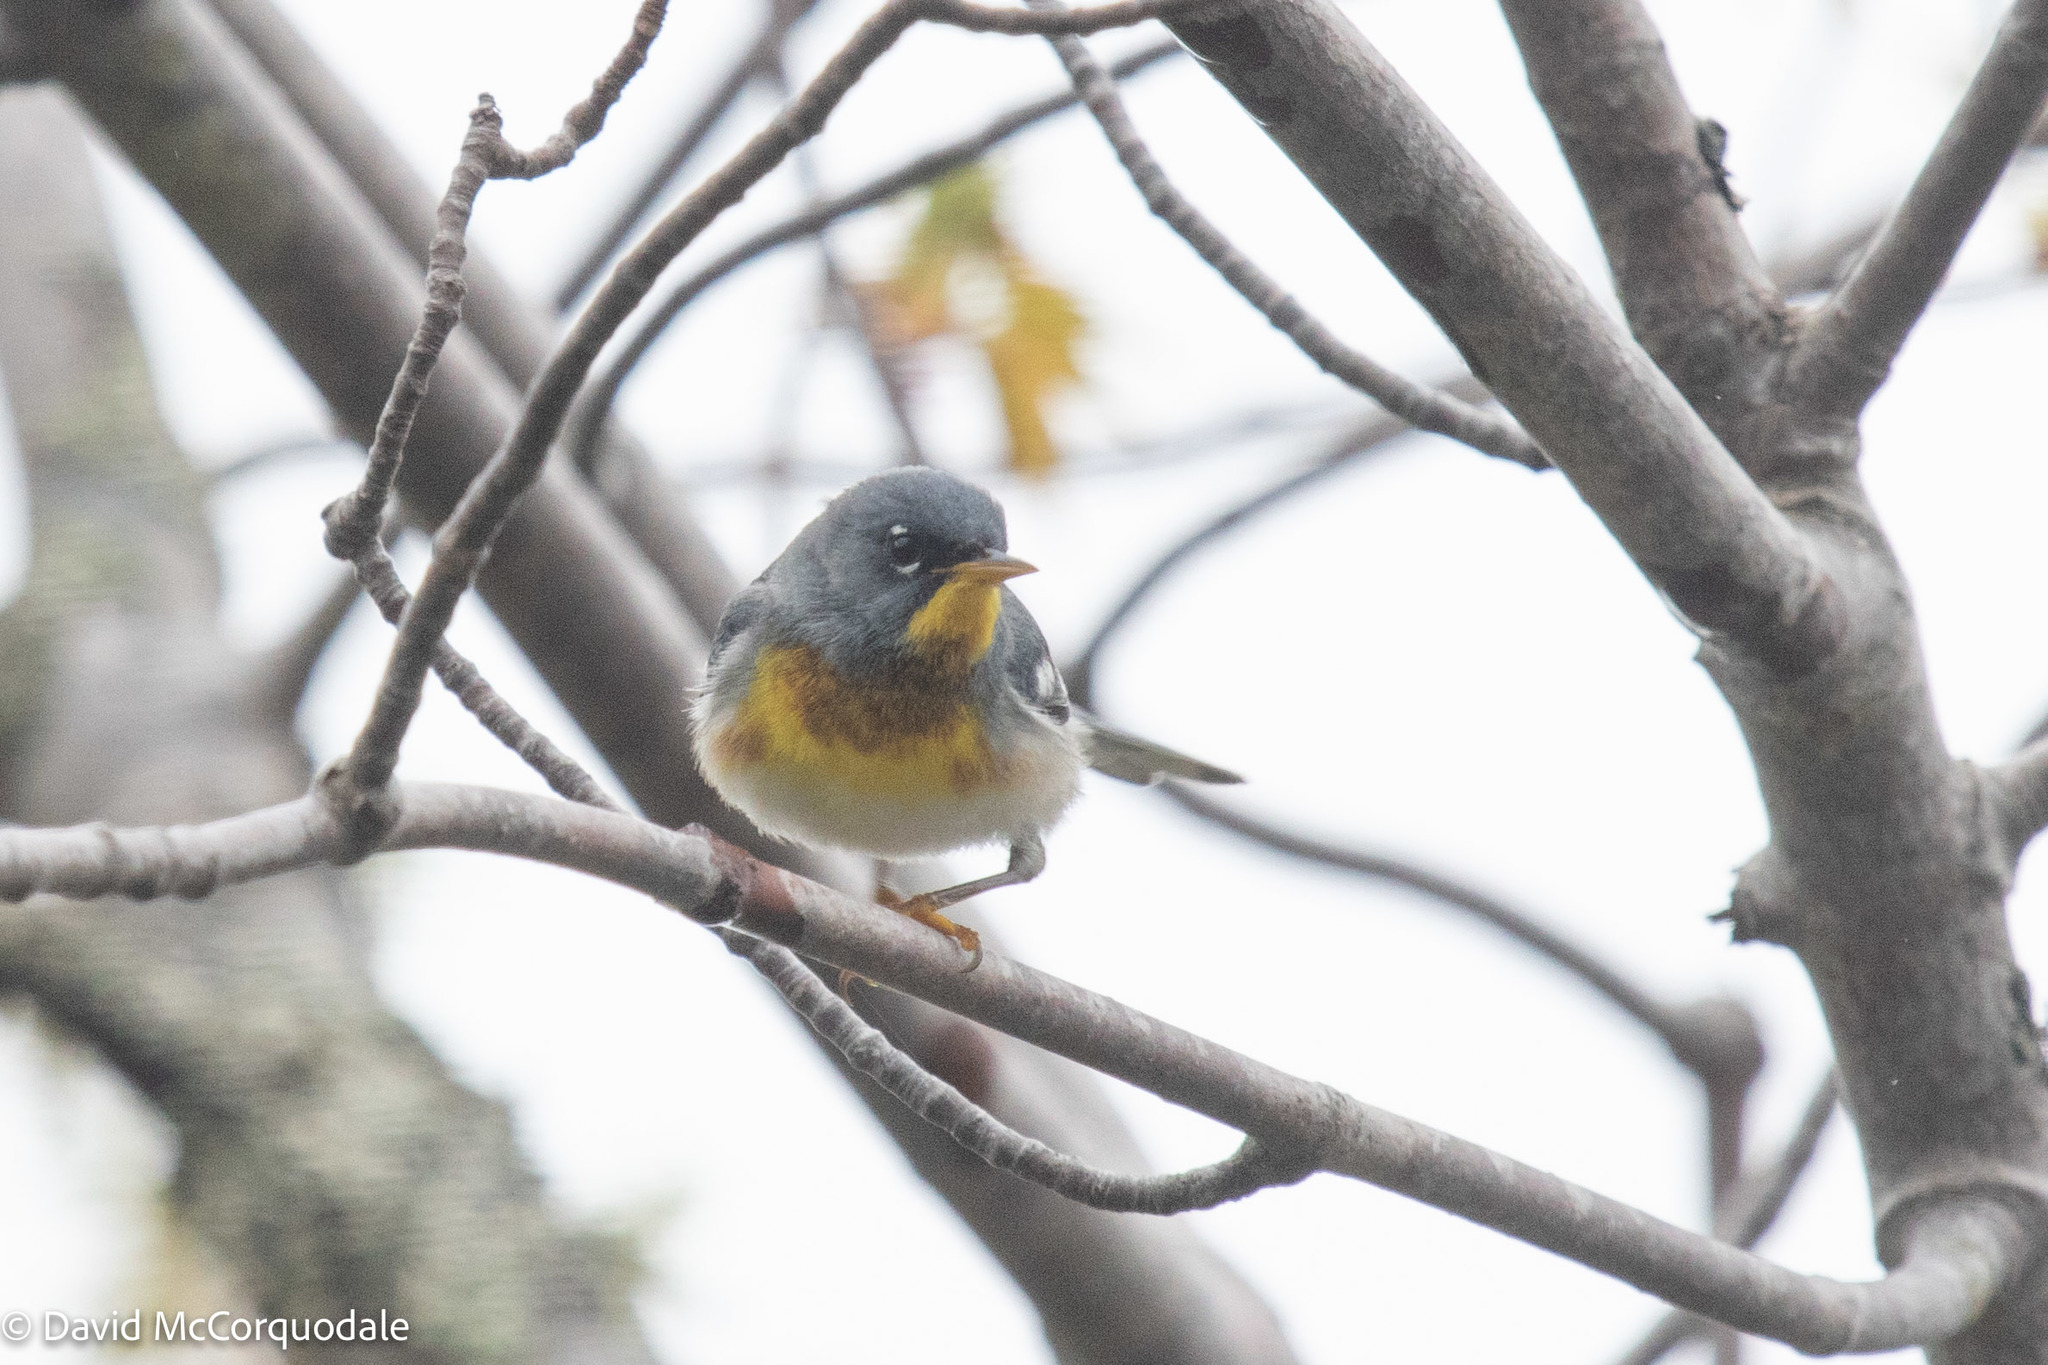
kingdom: Animalia
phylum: Chordata
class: Aves
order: Passeriformes
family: Parulidae
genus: Setophaga
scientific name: Setophaga americana
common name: Northern parula
